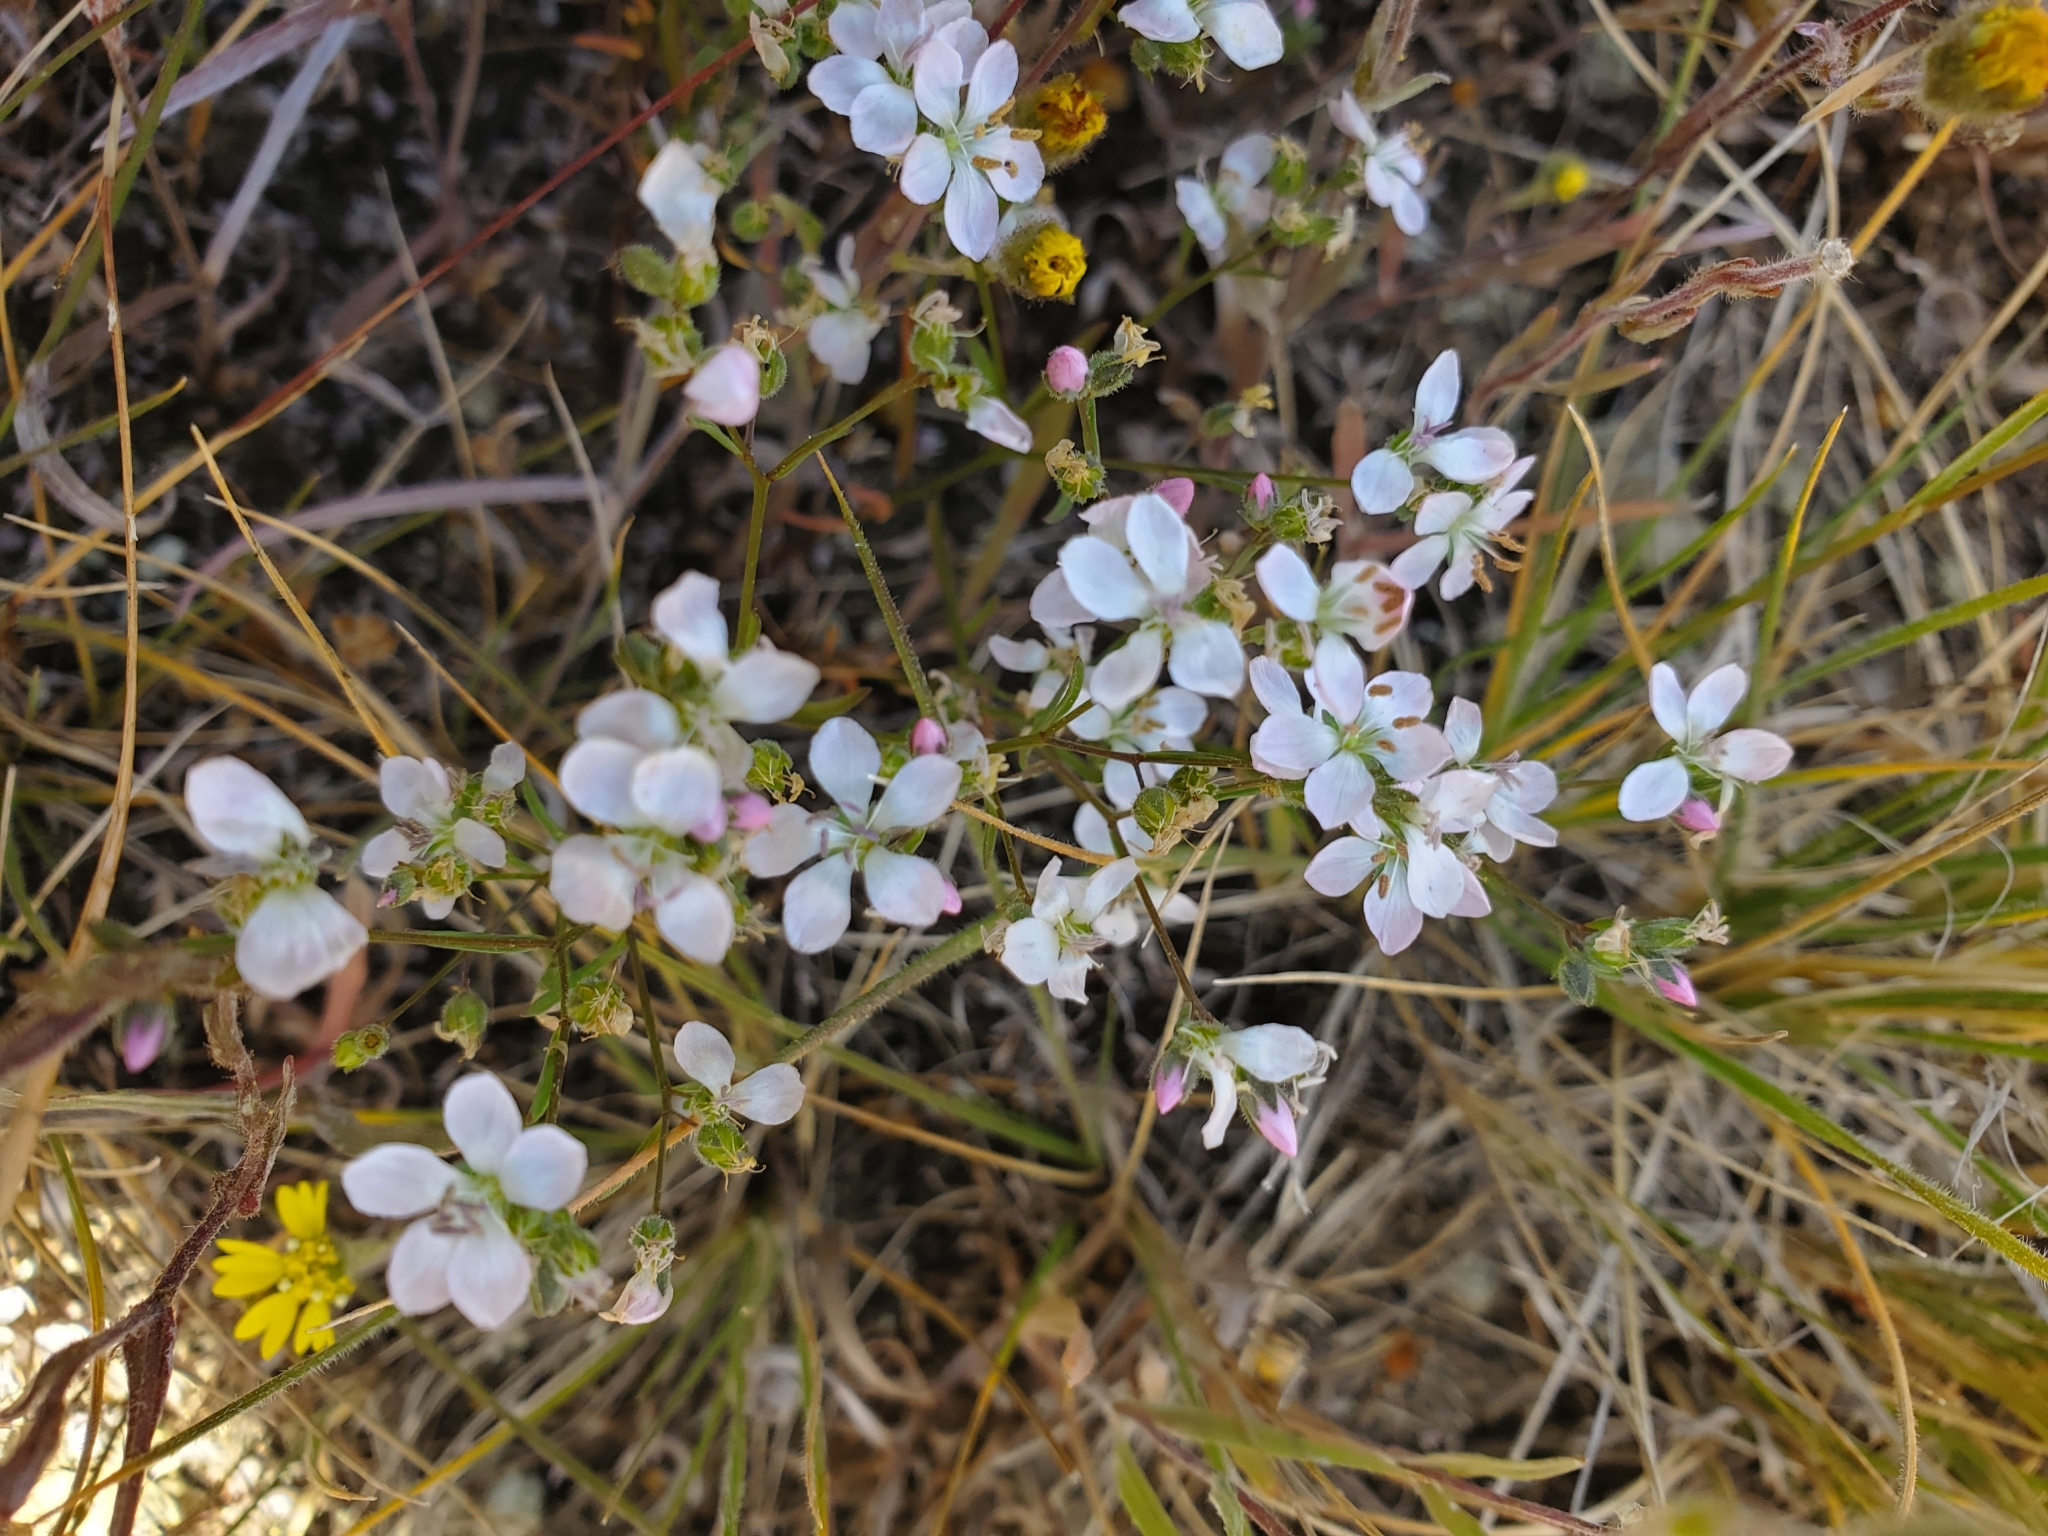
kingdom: Plantae
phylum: Tracheophyta
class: Magnoliopsida
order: Malpighiales
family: Linaceae
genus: Hesperolinon
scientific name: Hesperolinon congestum
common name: Marin dwarf-flax
